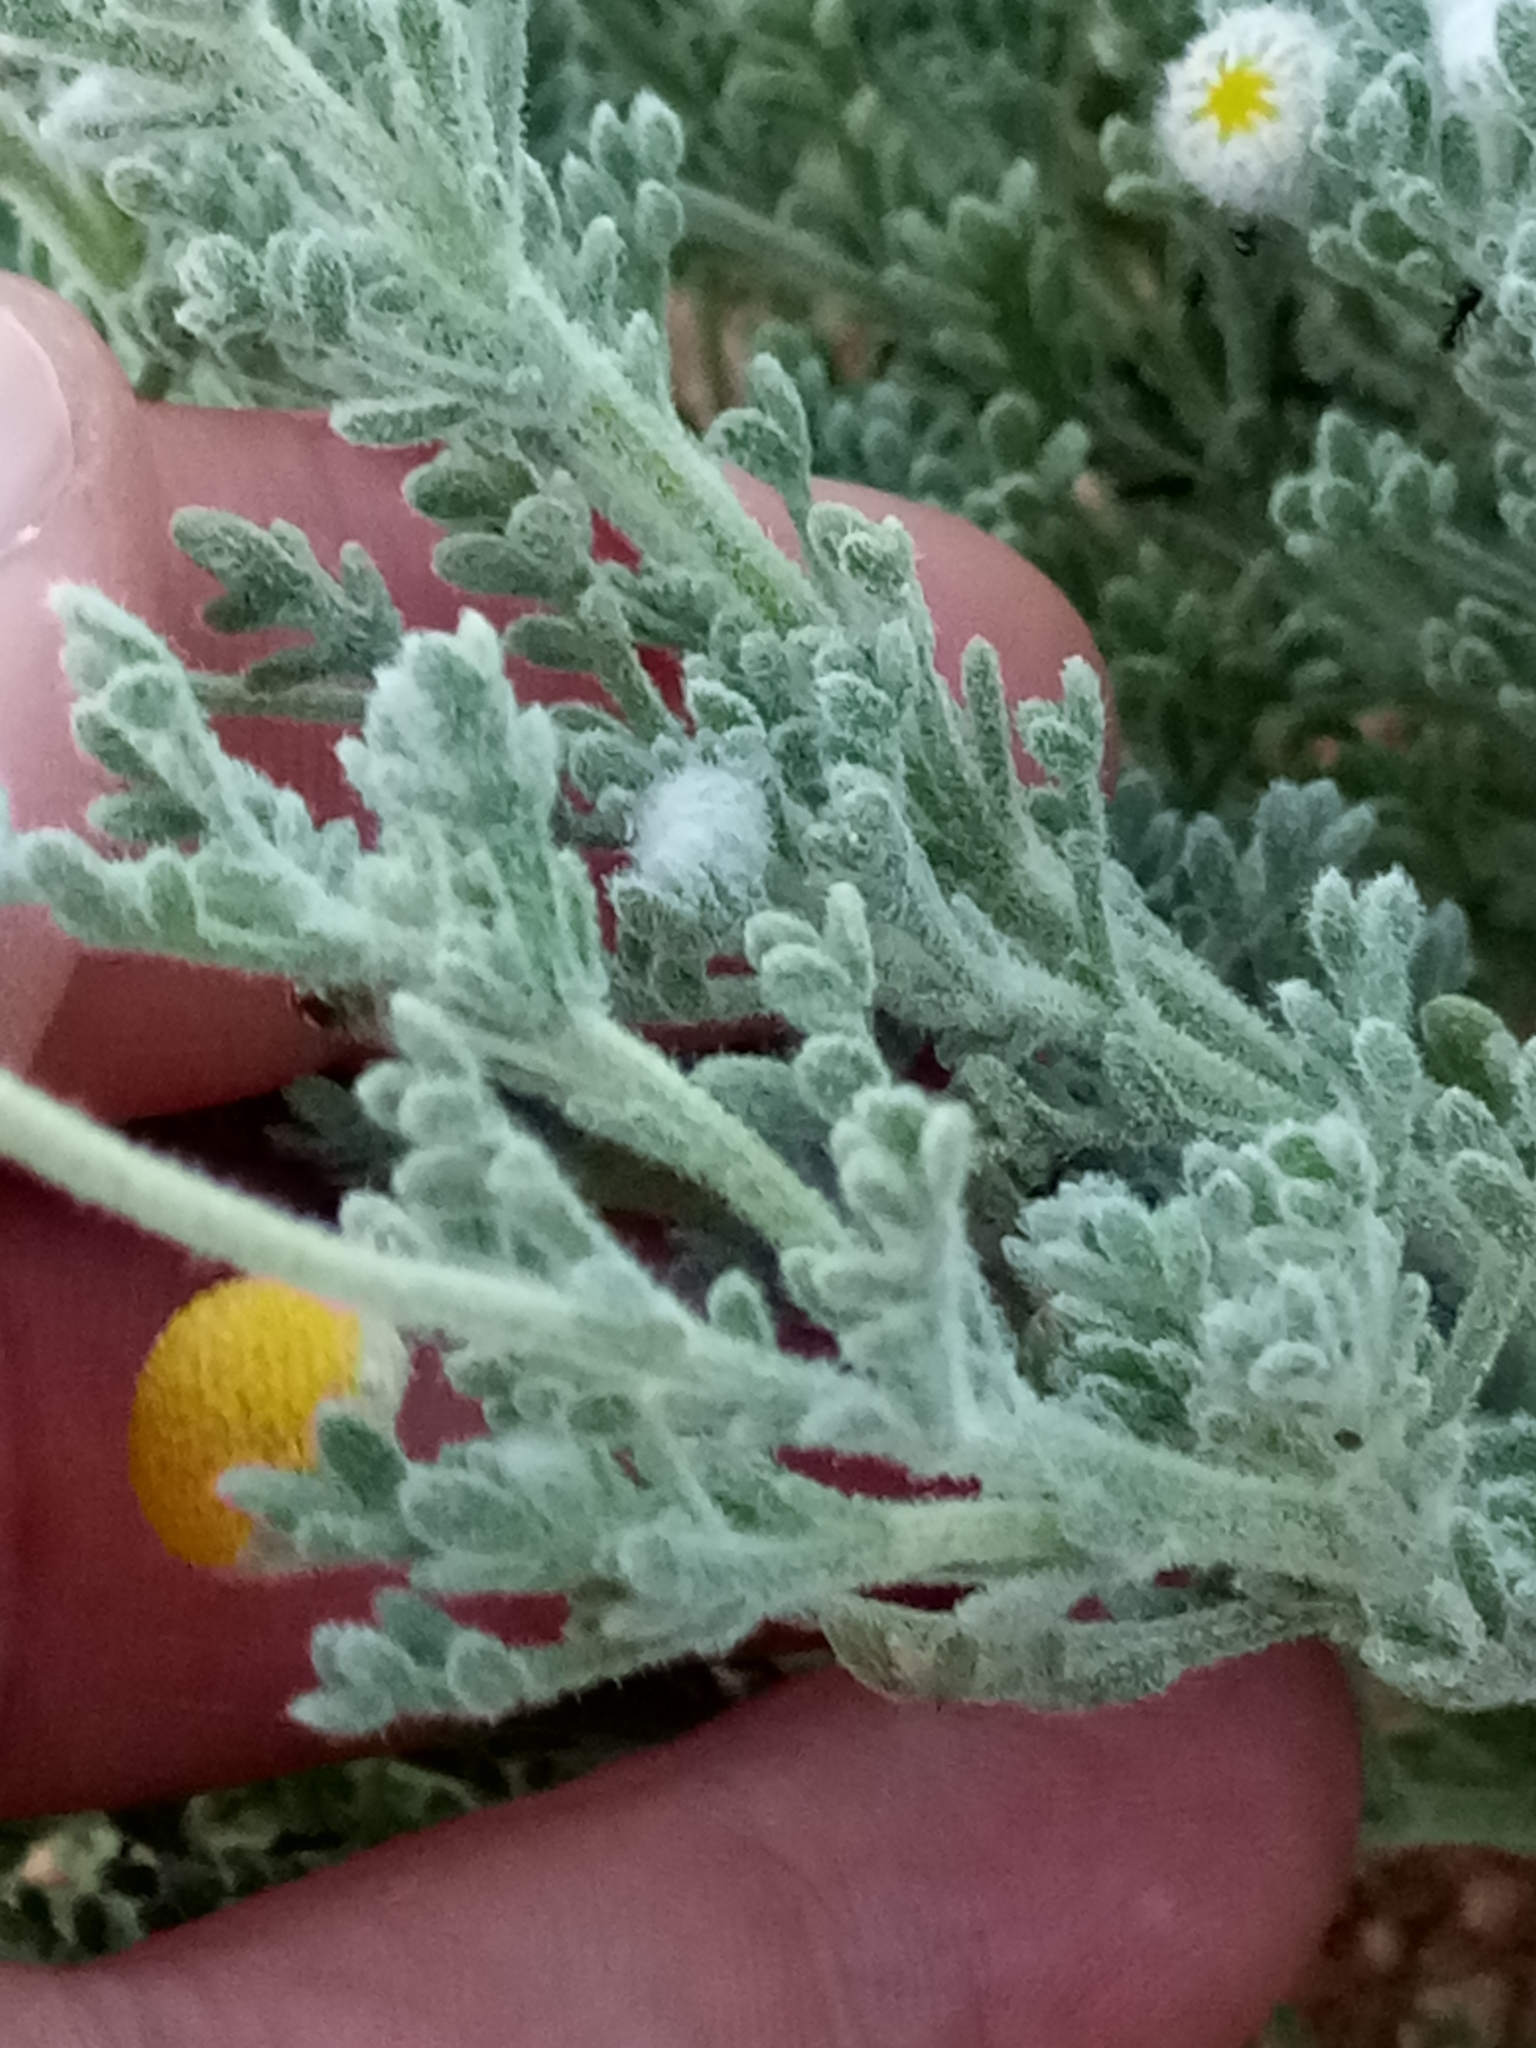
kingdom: Plantae
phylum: Tracheophyta
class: Magnoliopsida
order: Asterales
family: Asteraceae
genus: Brocchia
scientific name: Brocchia cinerea
